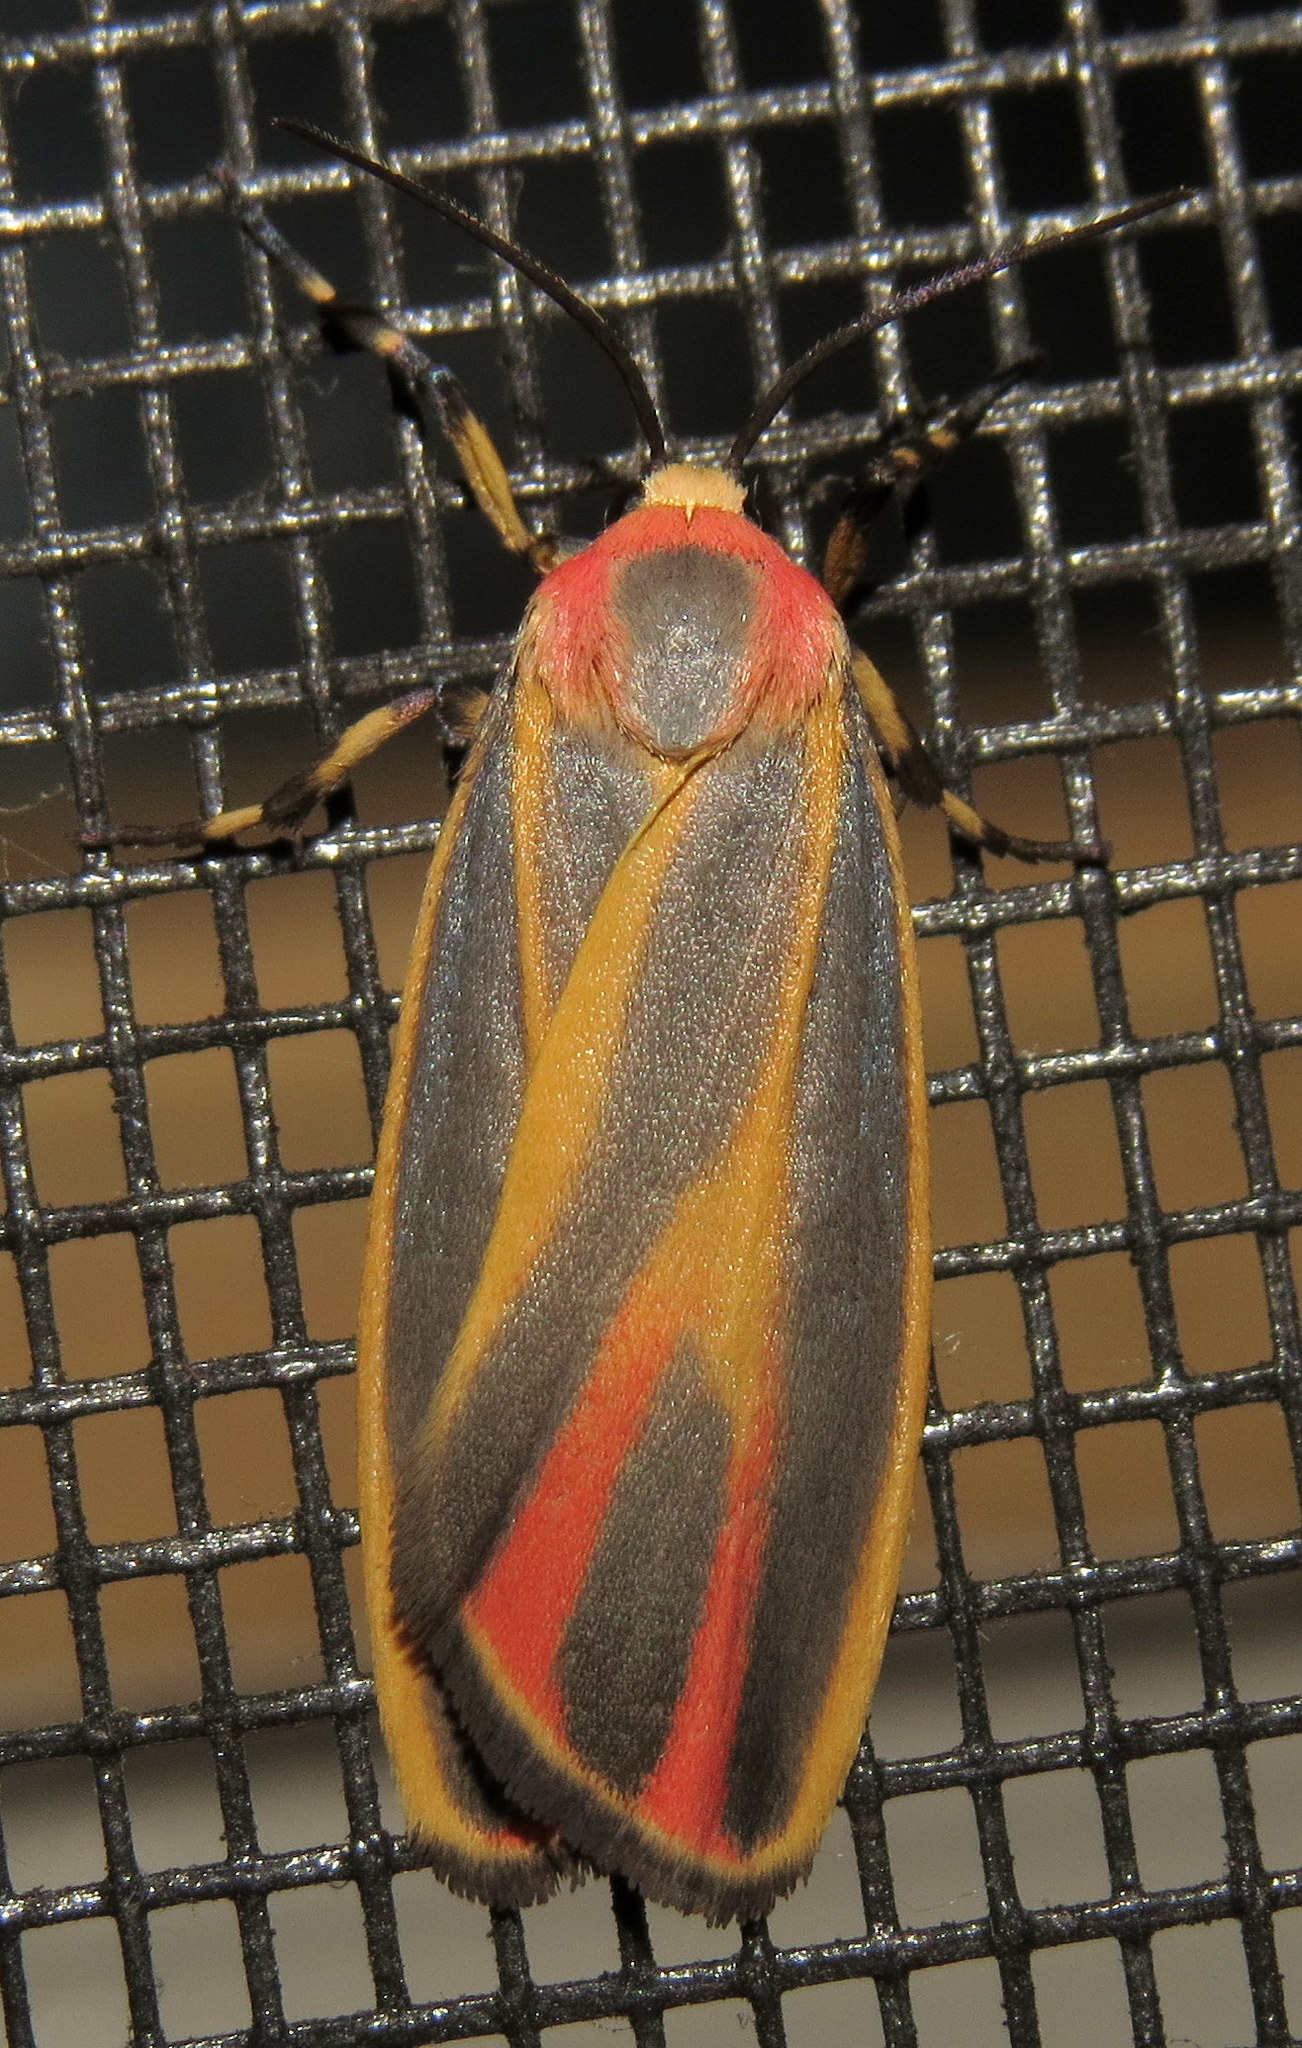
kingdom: Animalia
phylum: Arthropoda
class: Insecta
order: Lepidoptera
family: Erebidae
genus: Hypoprepia
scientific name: Hypoprepia fucosa
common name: Painted lichen moth
